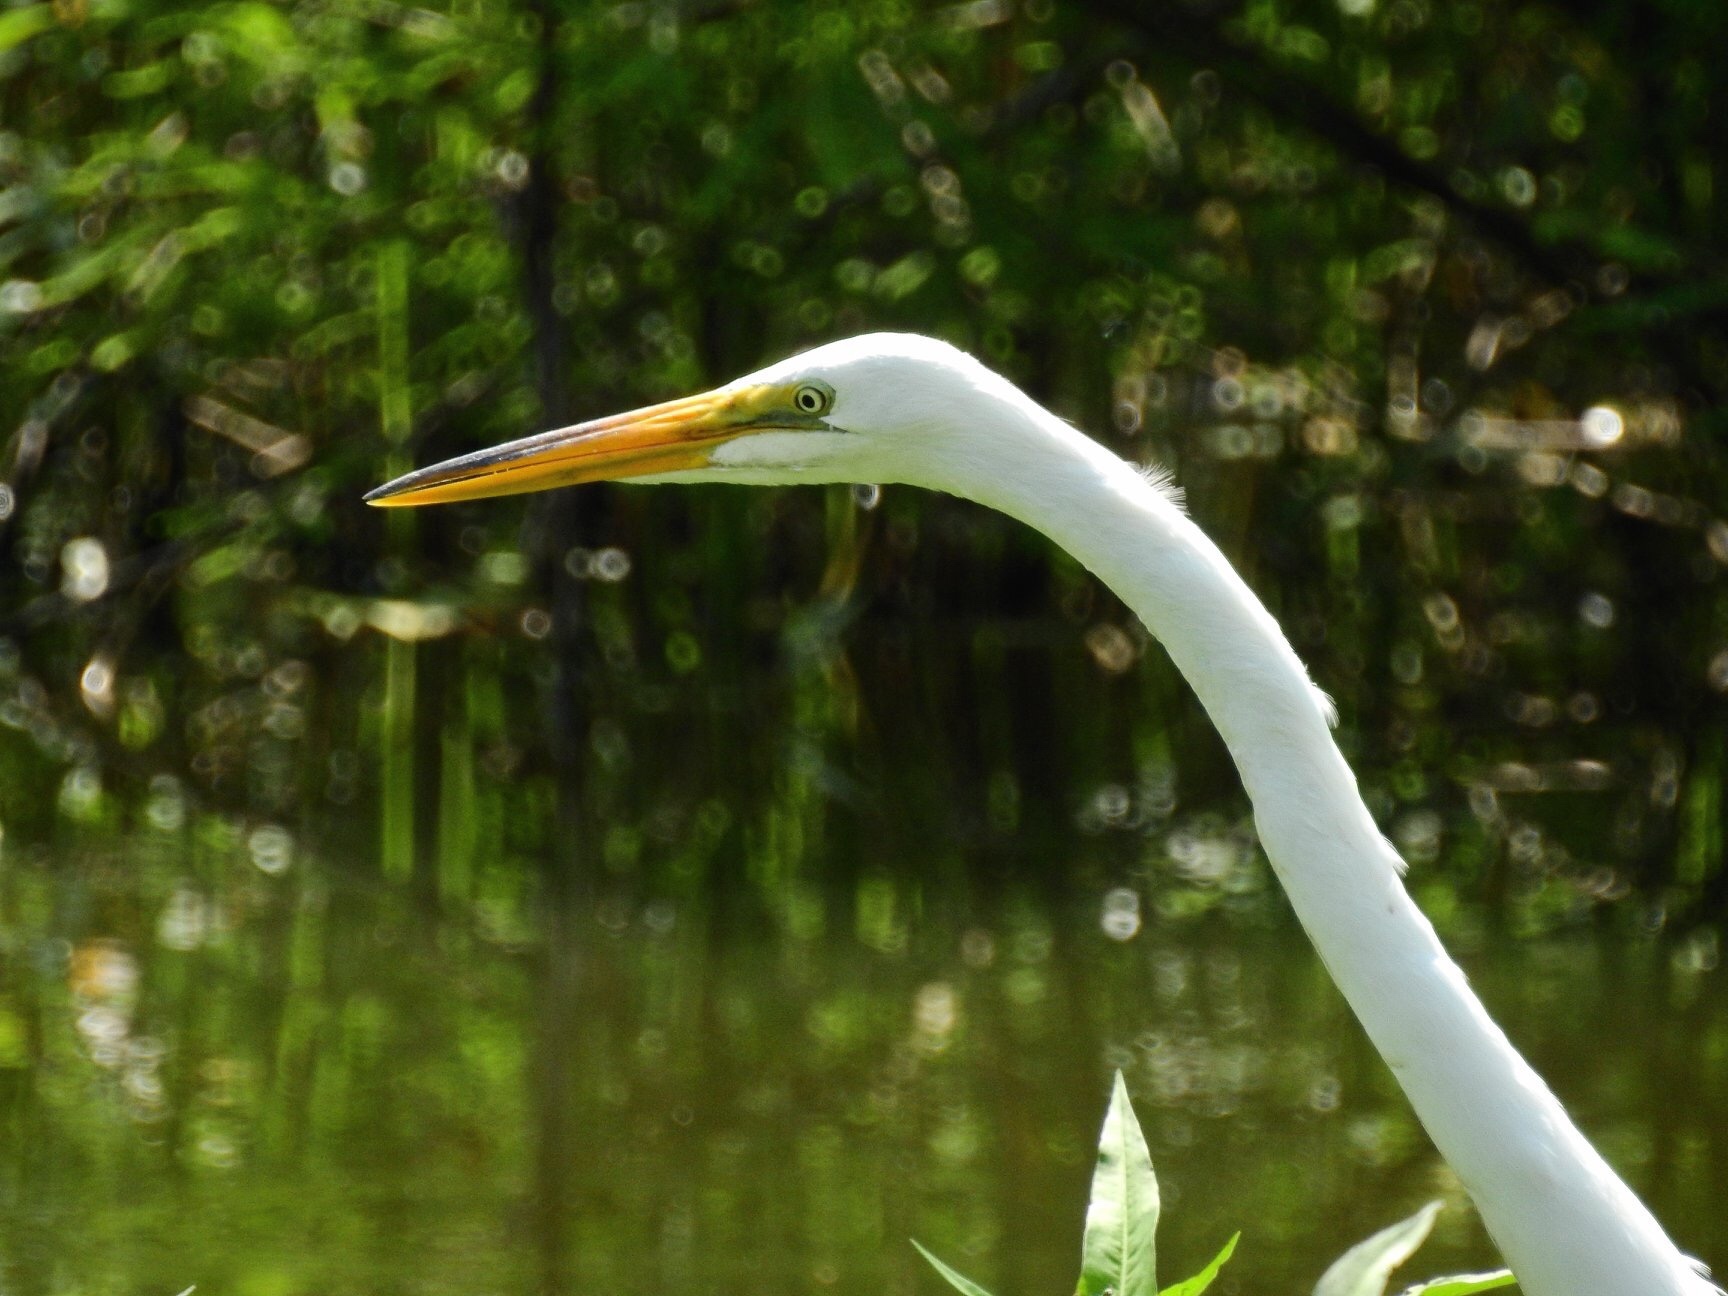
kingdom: Animalia
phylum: Chordata
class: Aves
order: Pelecaniformes
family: Ardeidae
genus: Ardea
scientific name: Ardea alba
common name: Great egret
